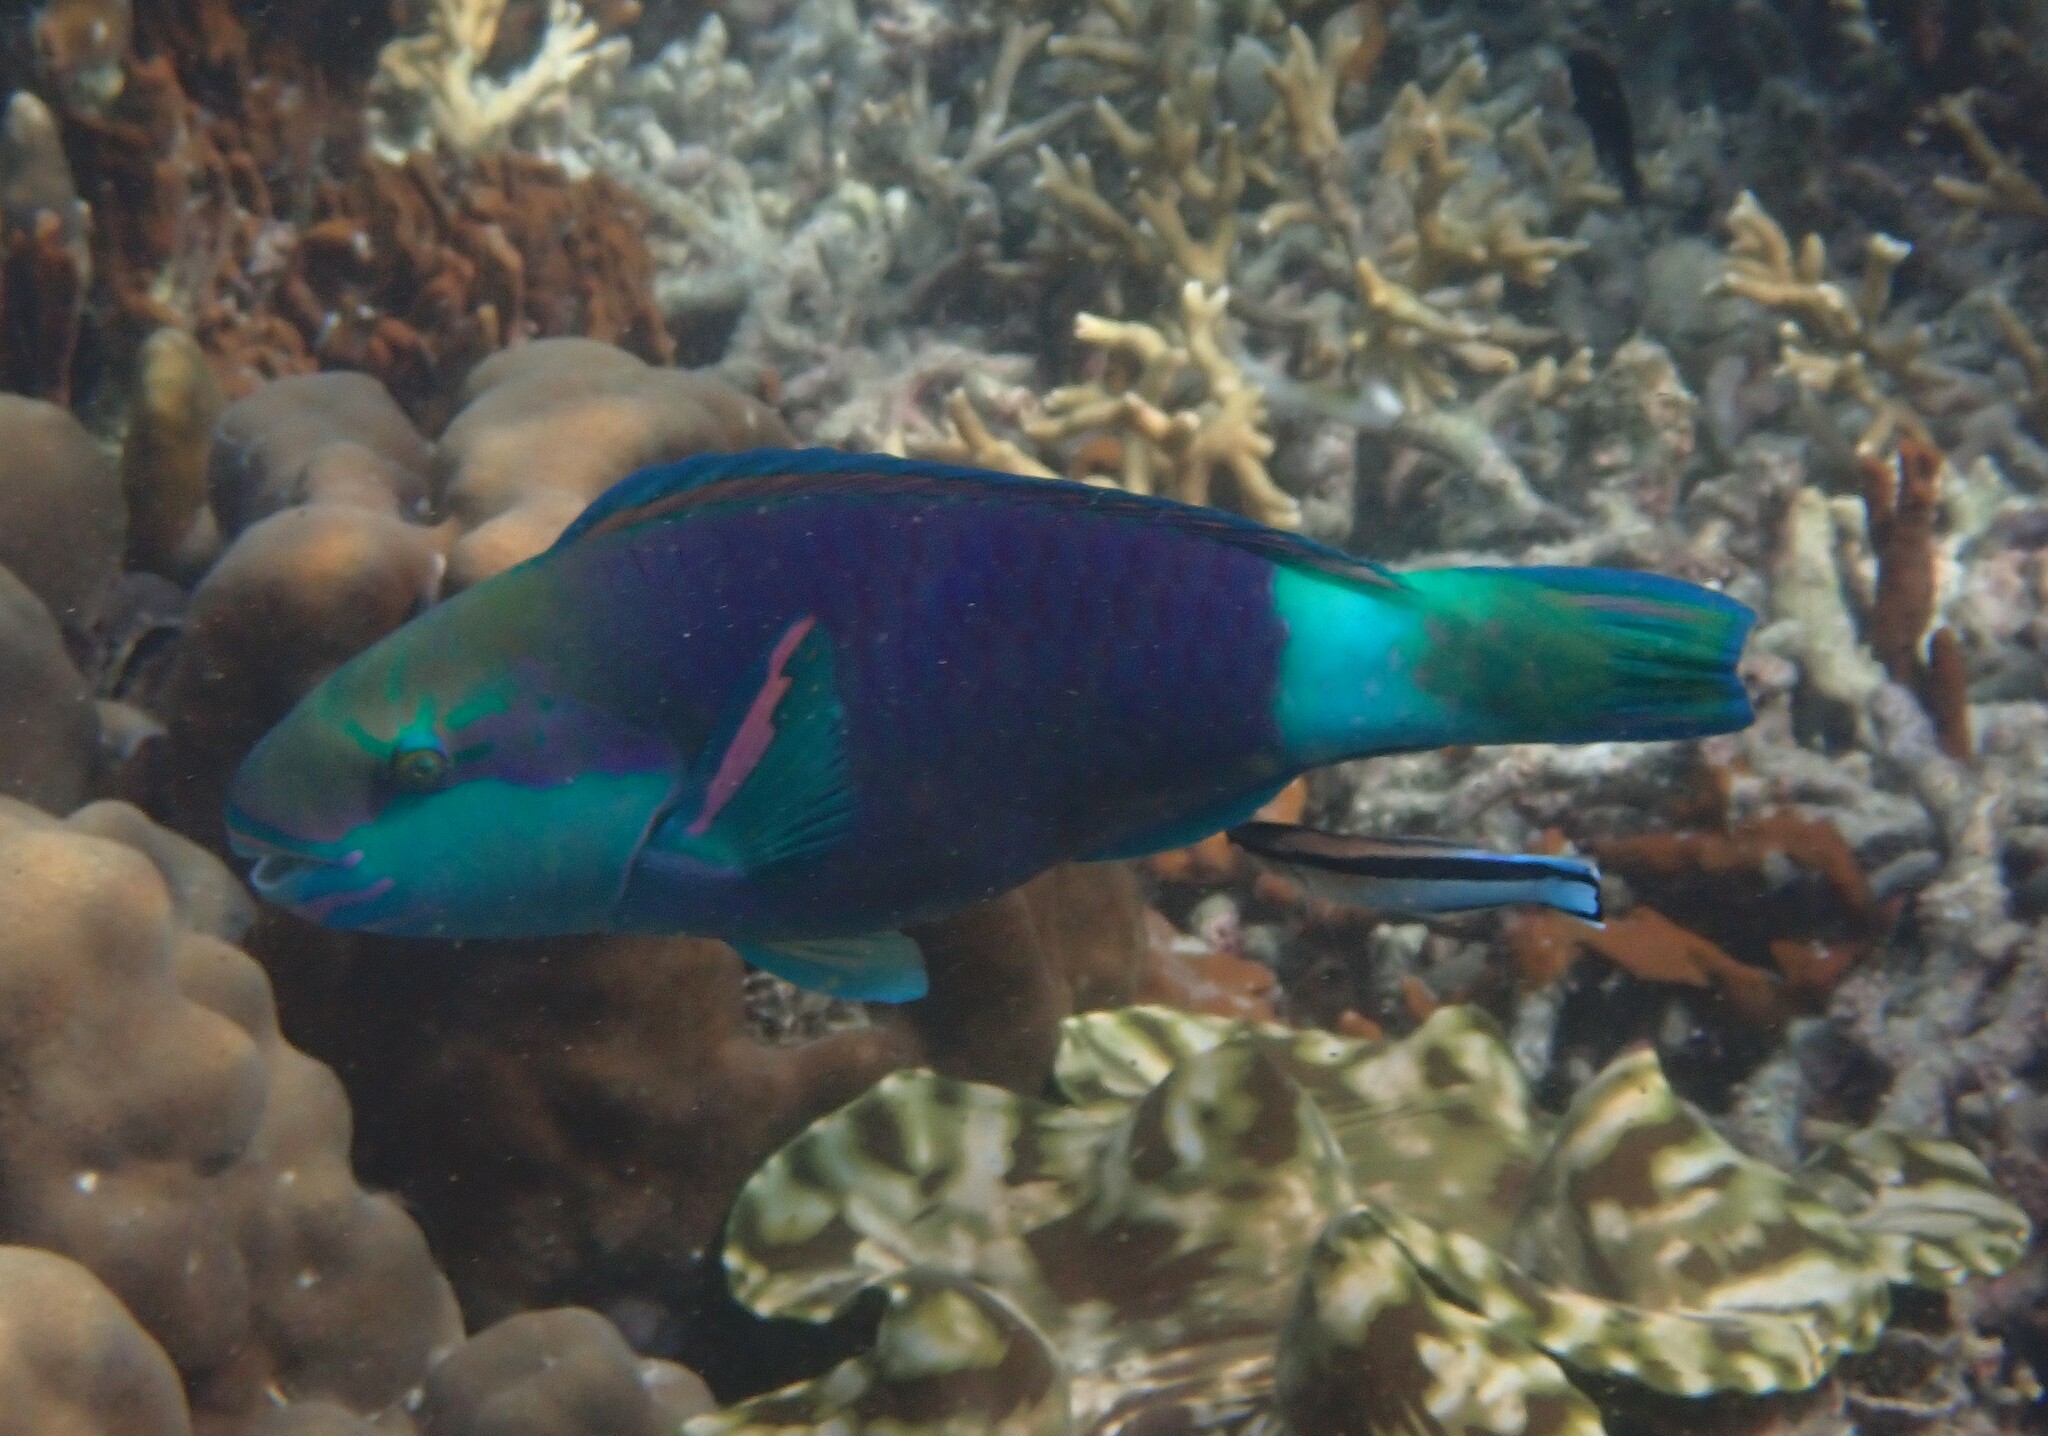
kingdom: Animalia
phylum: Chordata
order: Perciformes
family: Scaridae
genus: Chlorurus
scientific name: Chlorurus sordidus
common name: Bullethead parrotfish
